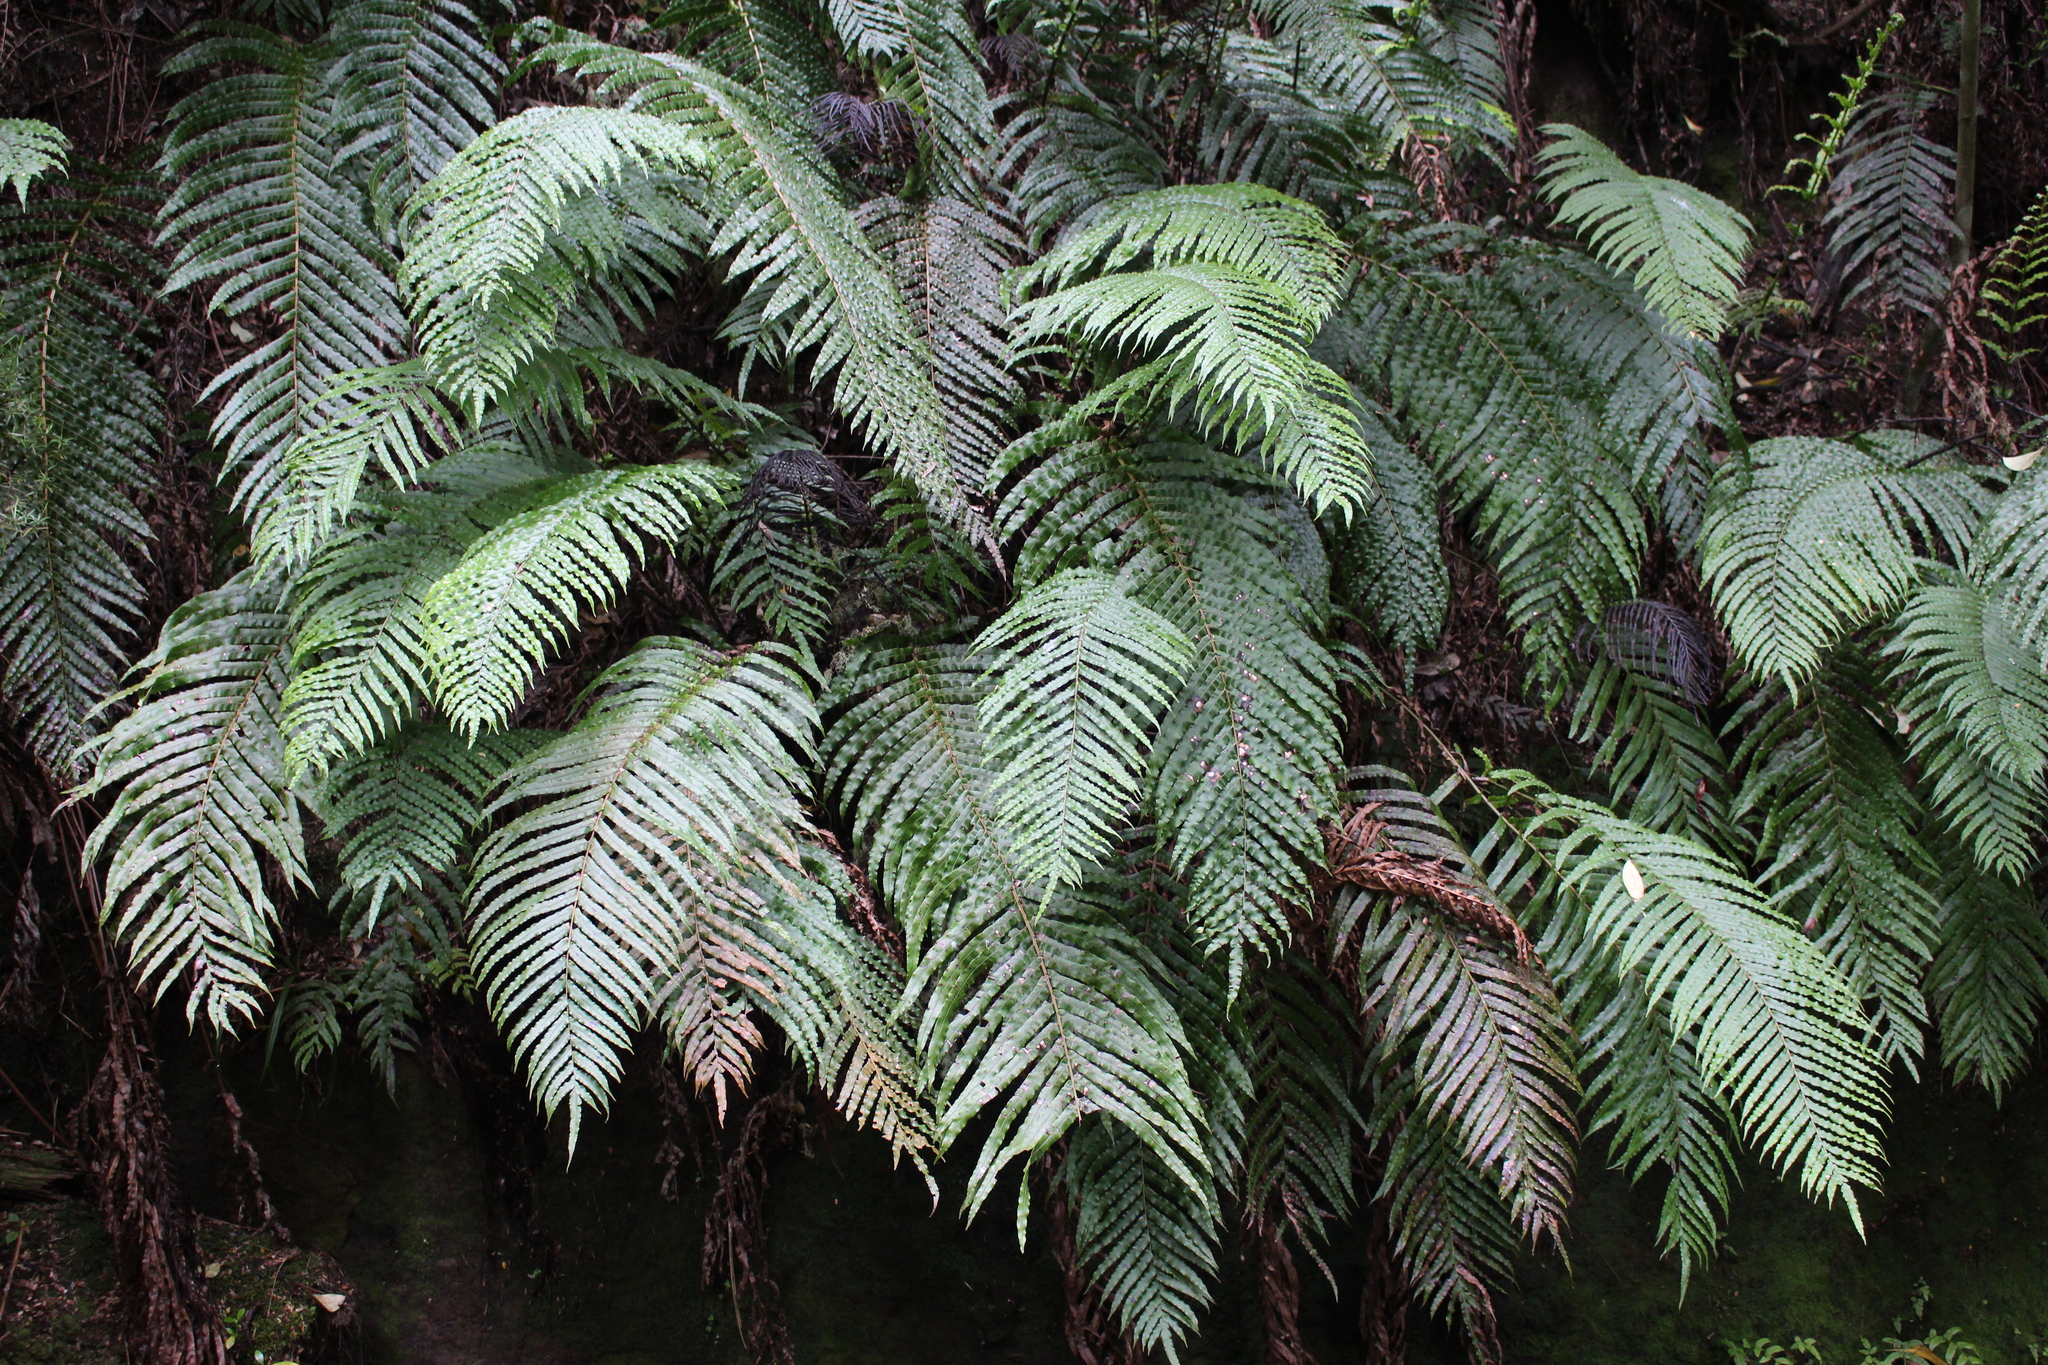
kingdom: Plantae
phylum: Tracheophyta
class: Polypodiopsida
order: Polypodiales
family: Blechnaceae
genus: Parablechnum
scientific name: Parablechnum novae-zelandiae
